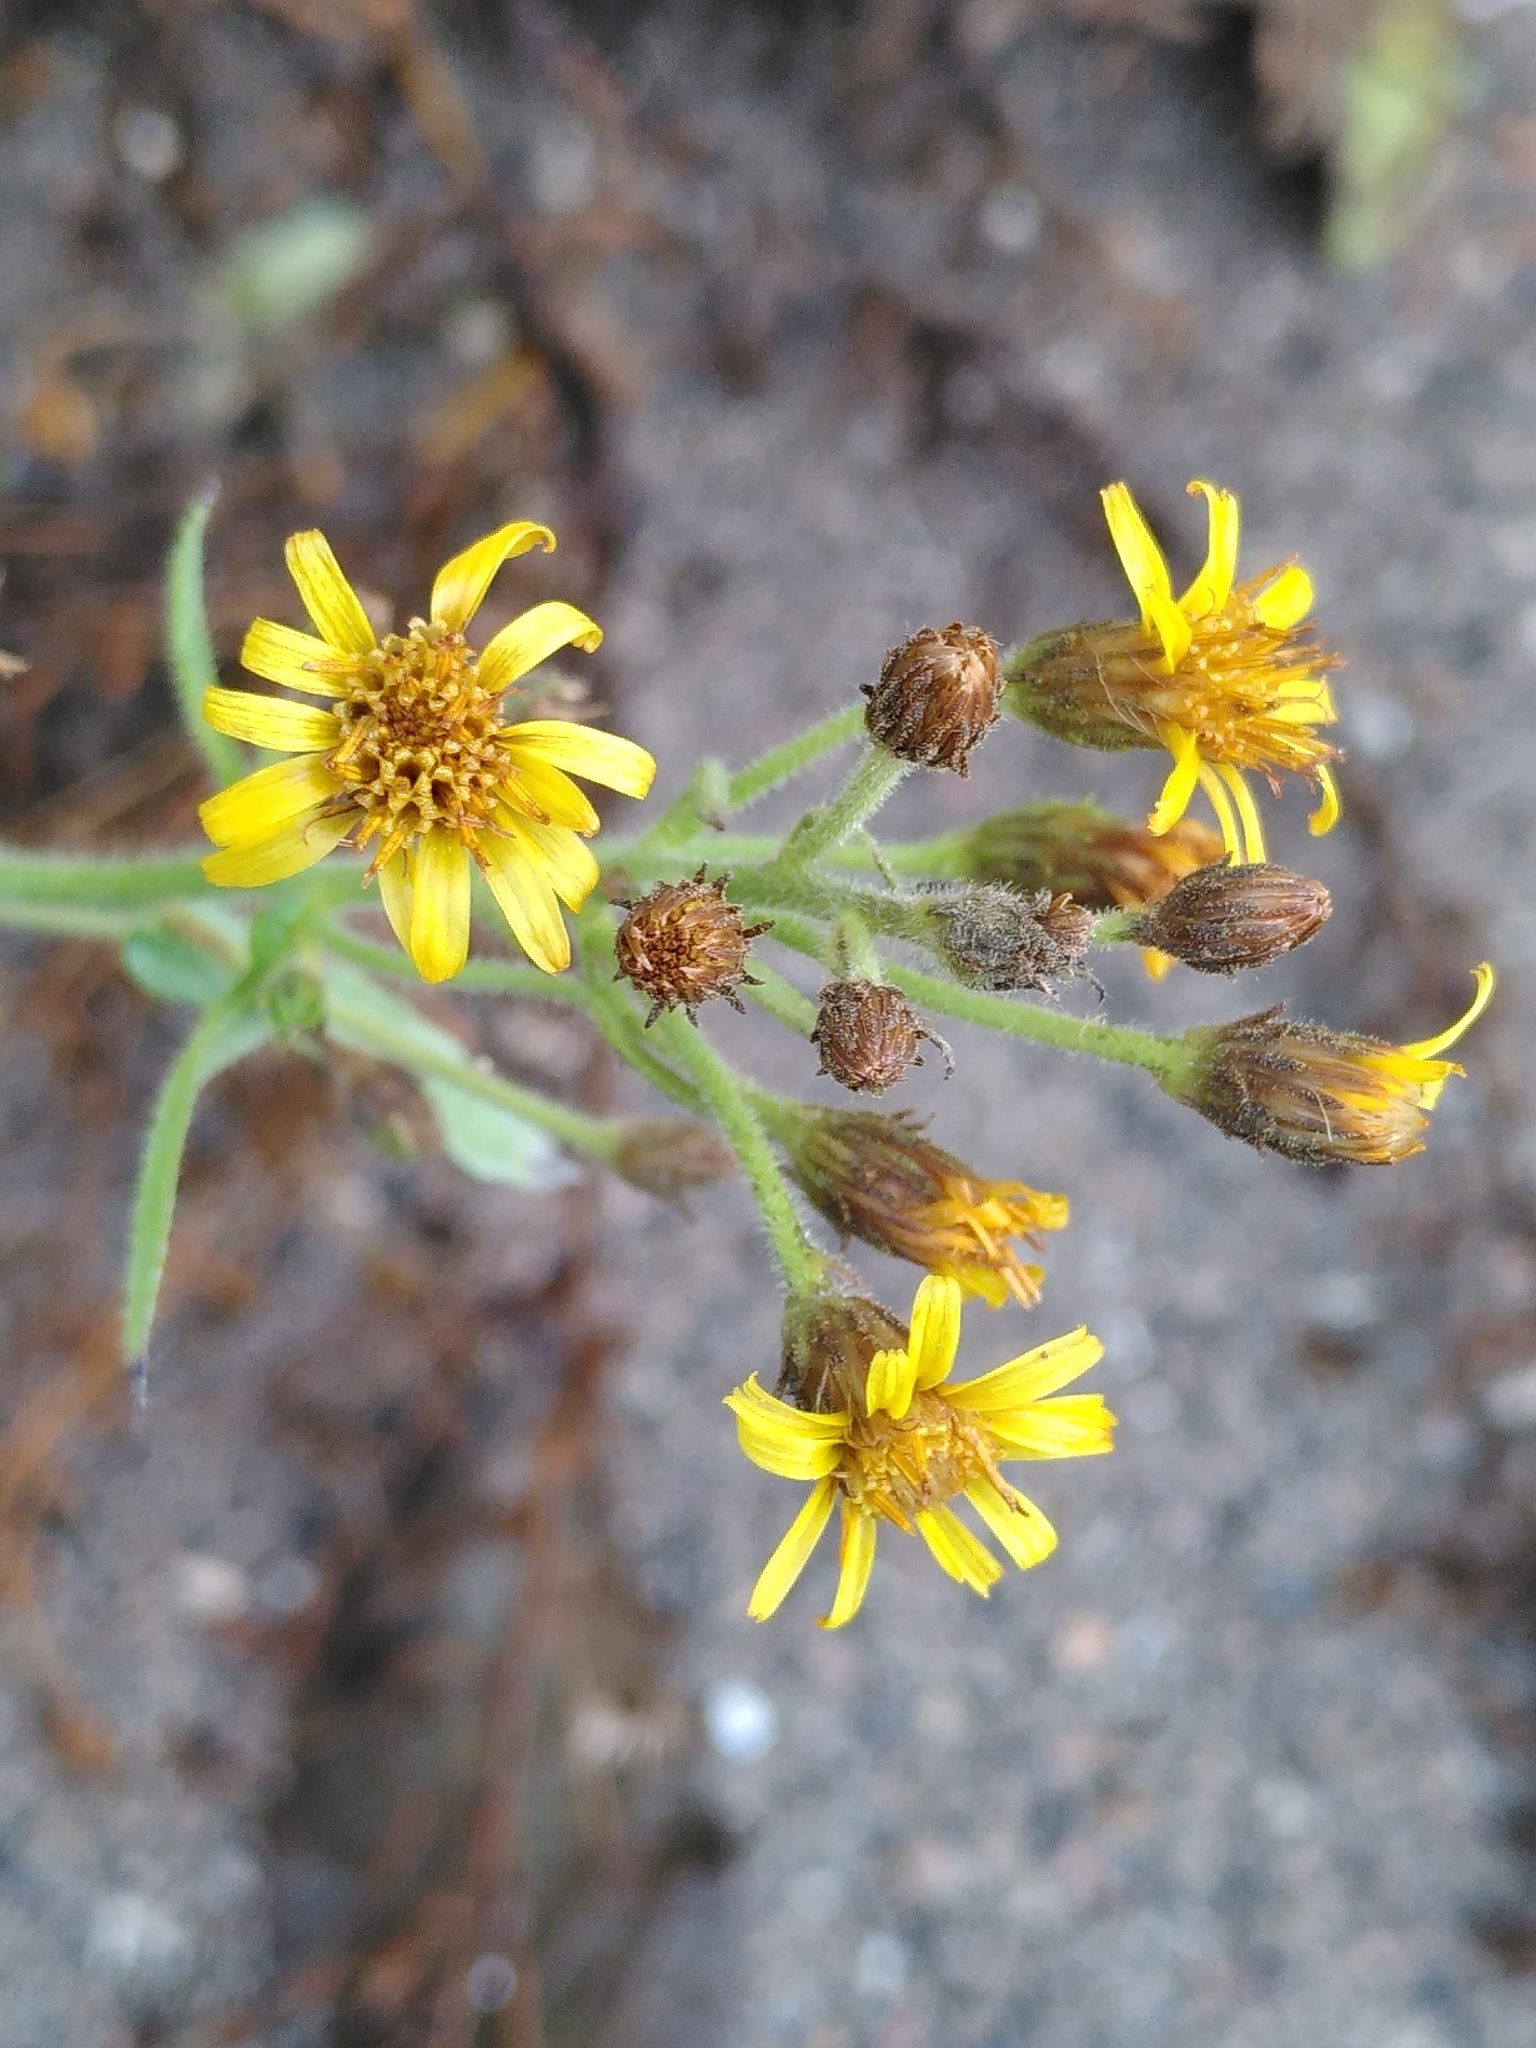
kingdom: Plantae
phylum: Tracheophyta
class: Magnoliopsida
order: Asterales
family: Asteraceae
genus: Dittrichia
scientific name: Dittrichia viscosa
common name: Woody fleabane
